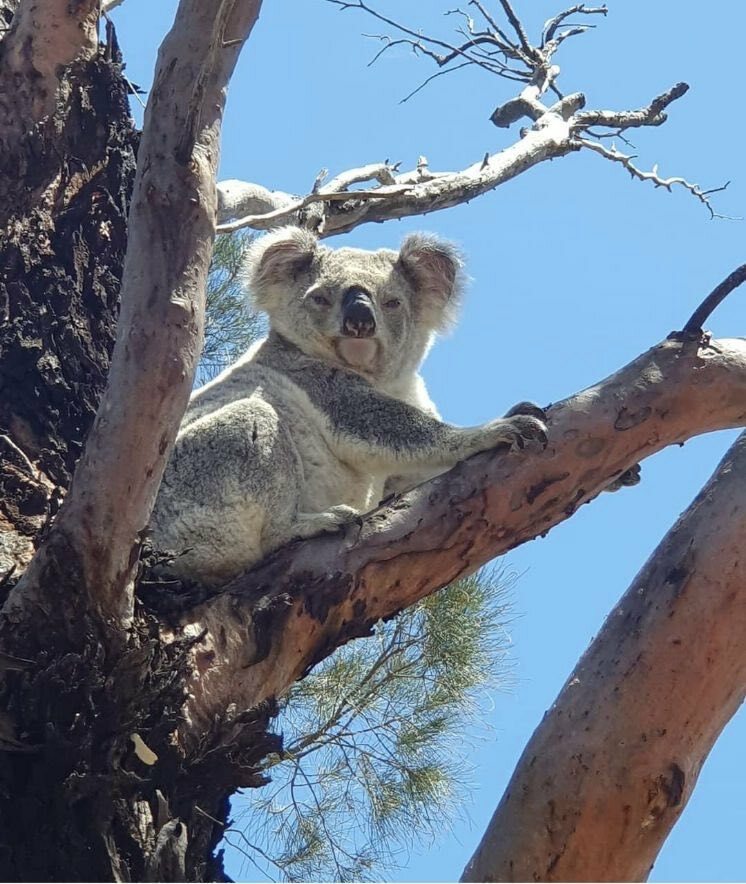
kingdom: Animalia
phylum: Chordata
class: Mammalia
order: Diprotodontia
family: Phascolarctidae
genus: Phascolarctos
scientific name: Phascolarctos cinereus
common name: Koala
